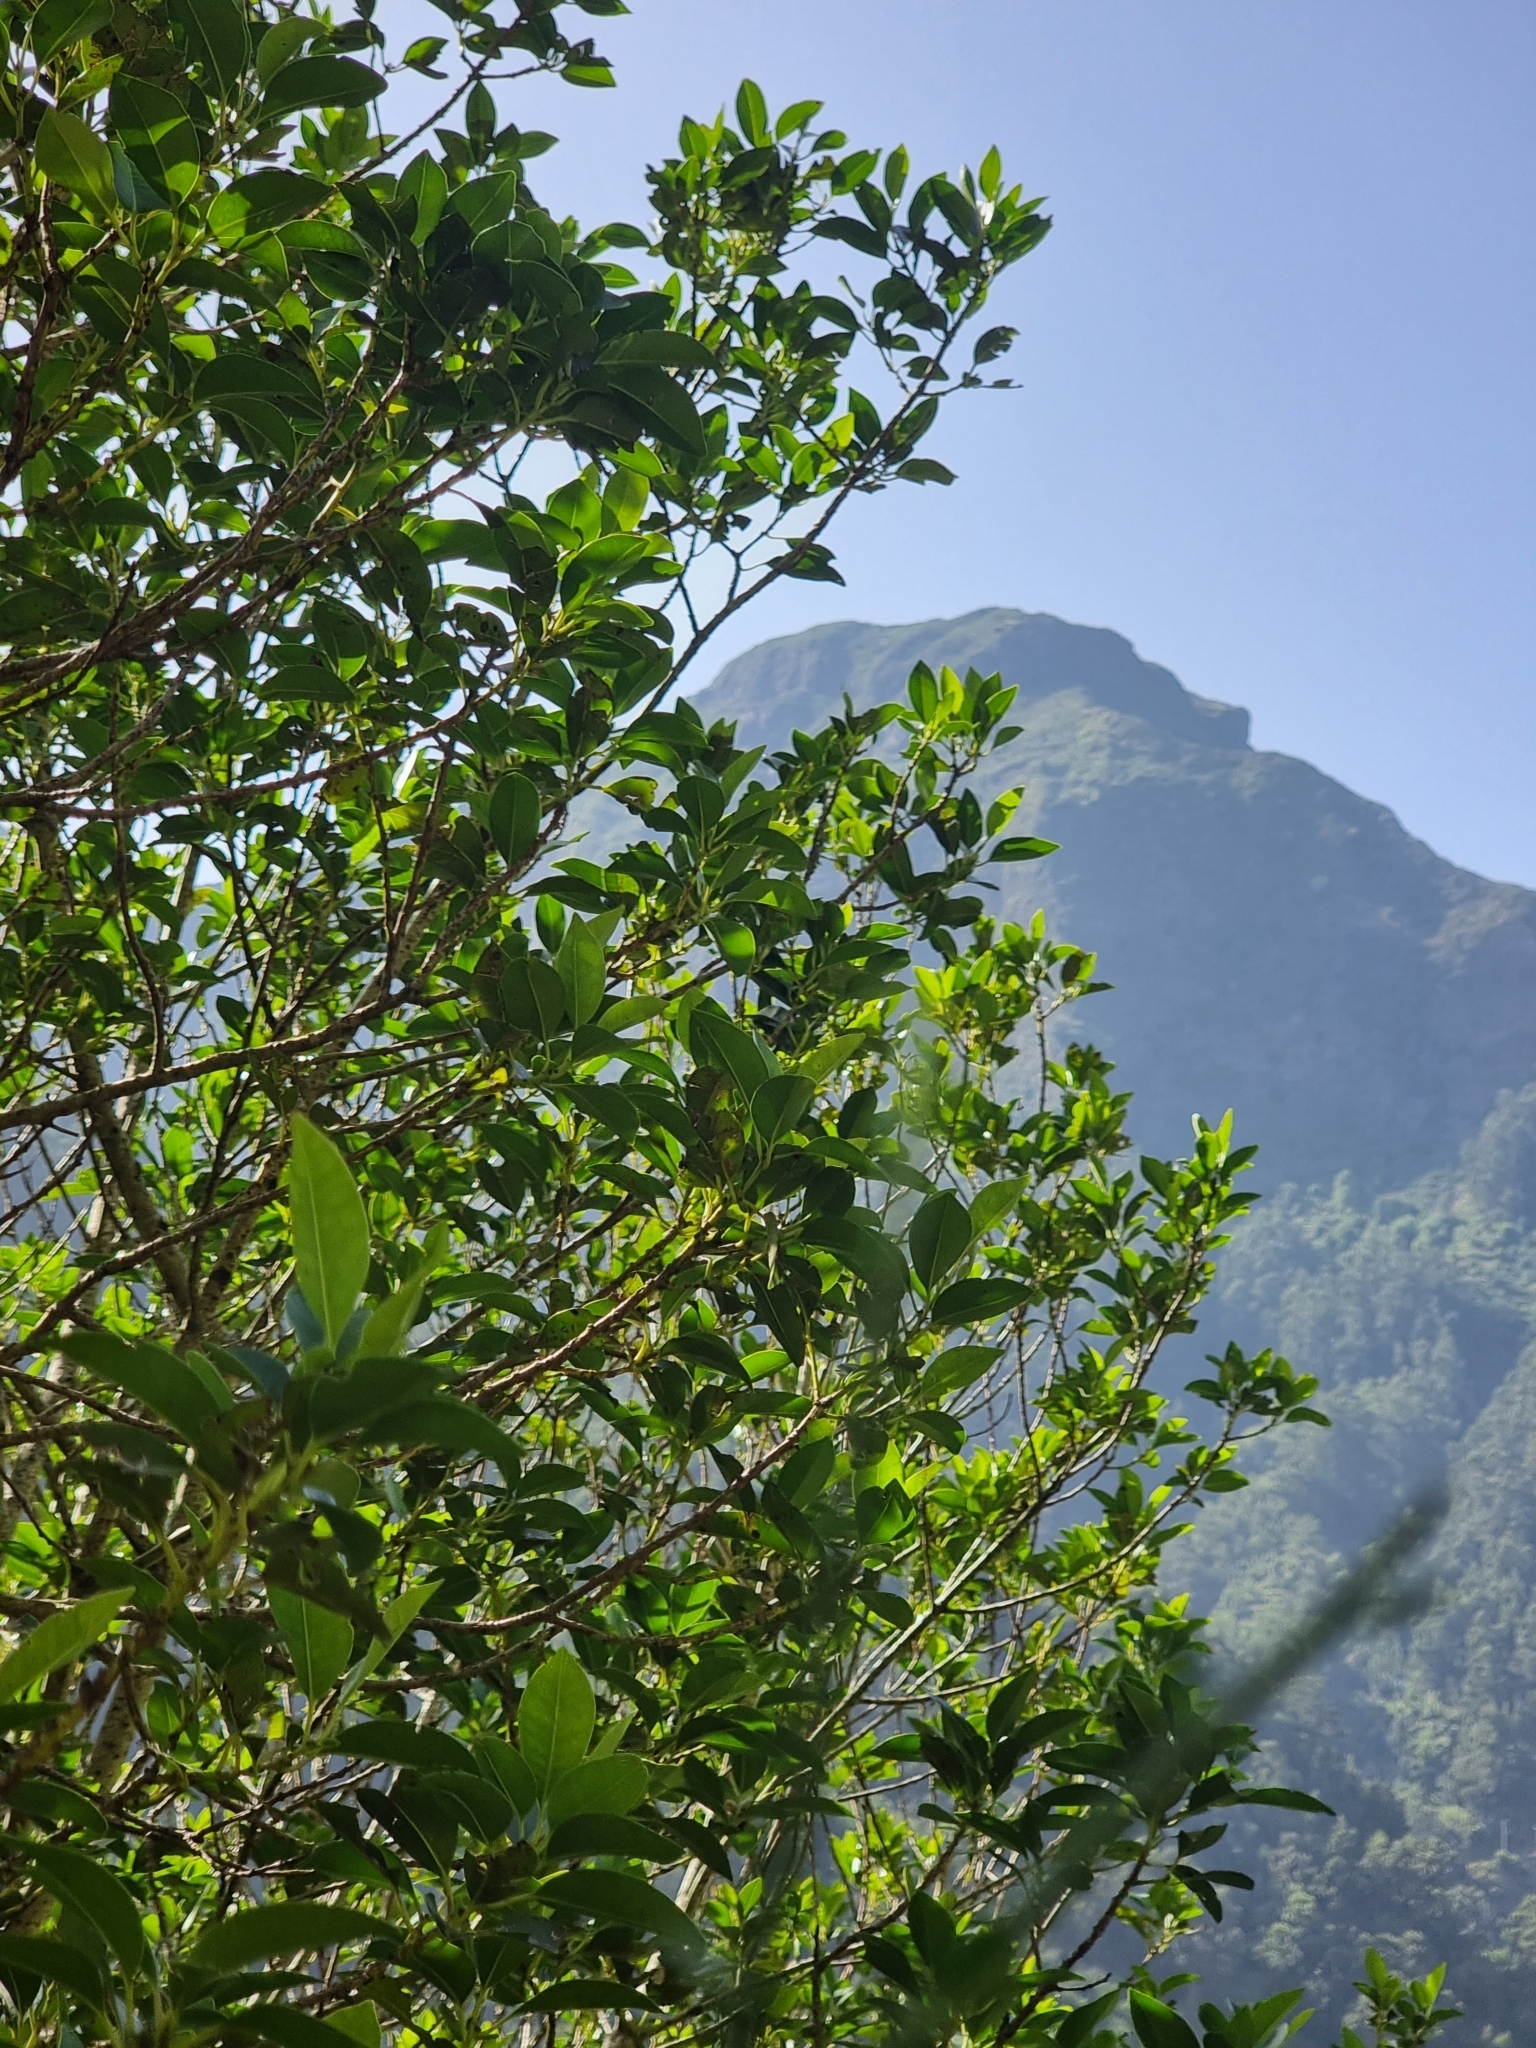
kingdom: Plantae
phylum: Tracheophyta
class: Magnoliopsida
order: Aquifoliales
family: Aquifoliaceae
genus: Ilex
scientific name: Ilex canariensis
